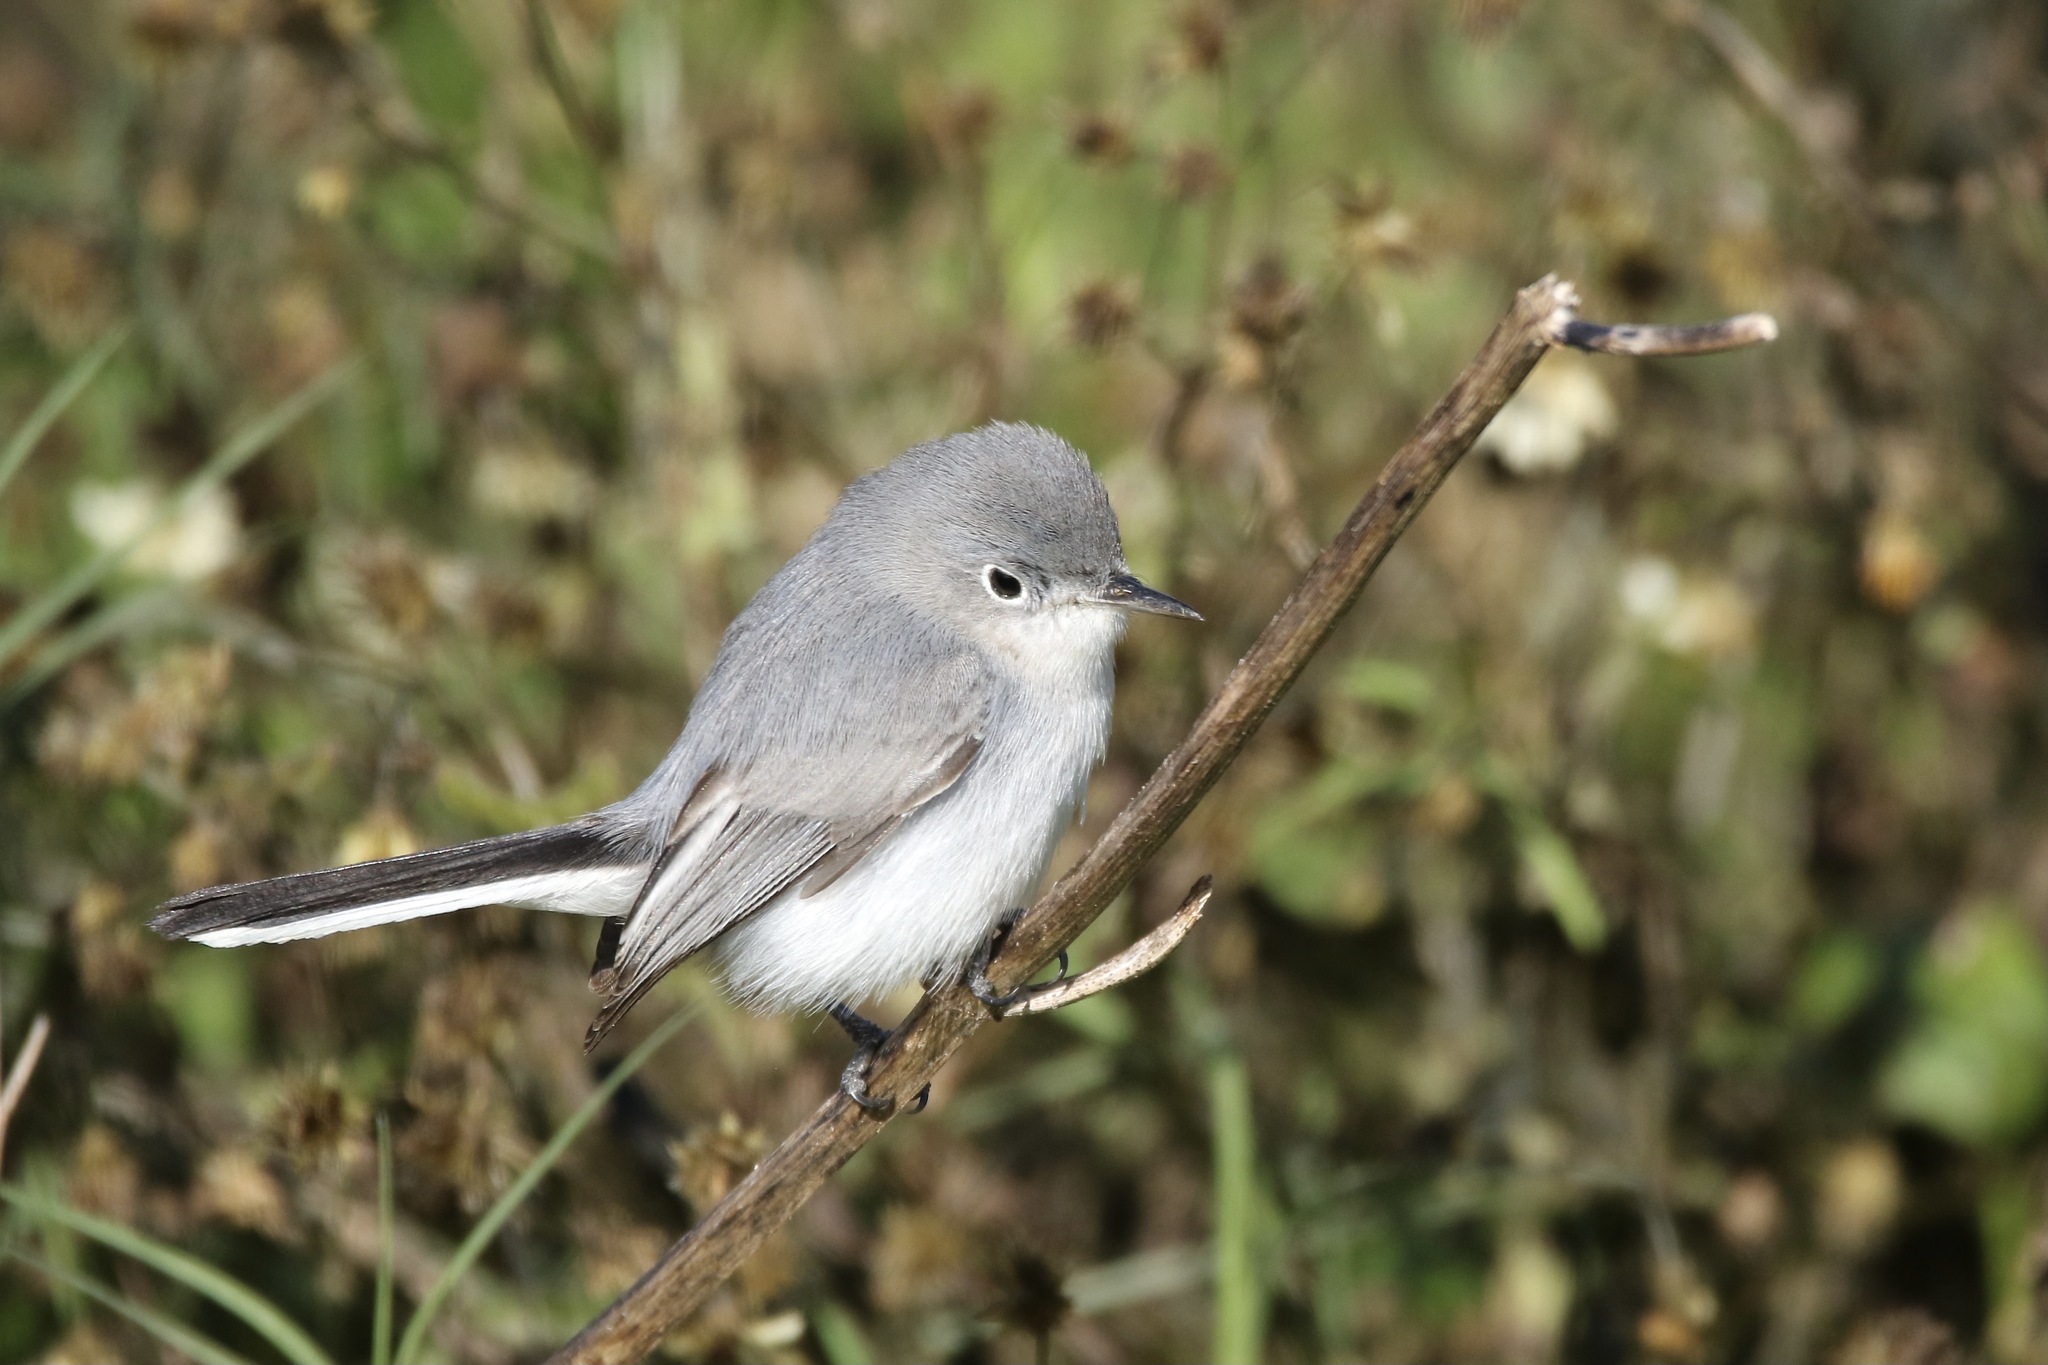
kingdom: Animalia
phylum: Chordata
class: Aves
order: Passeriformes
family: Polioptilidae
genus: Polioptila
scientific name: Polioptila caerulea
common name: Blue-gray gnatcatcher
